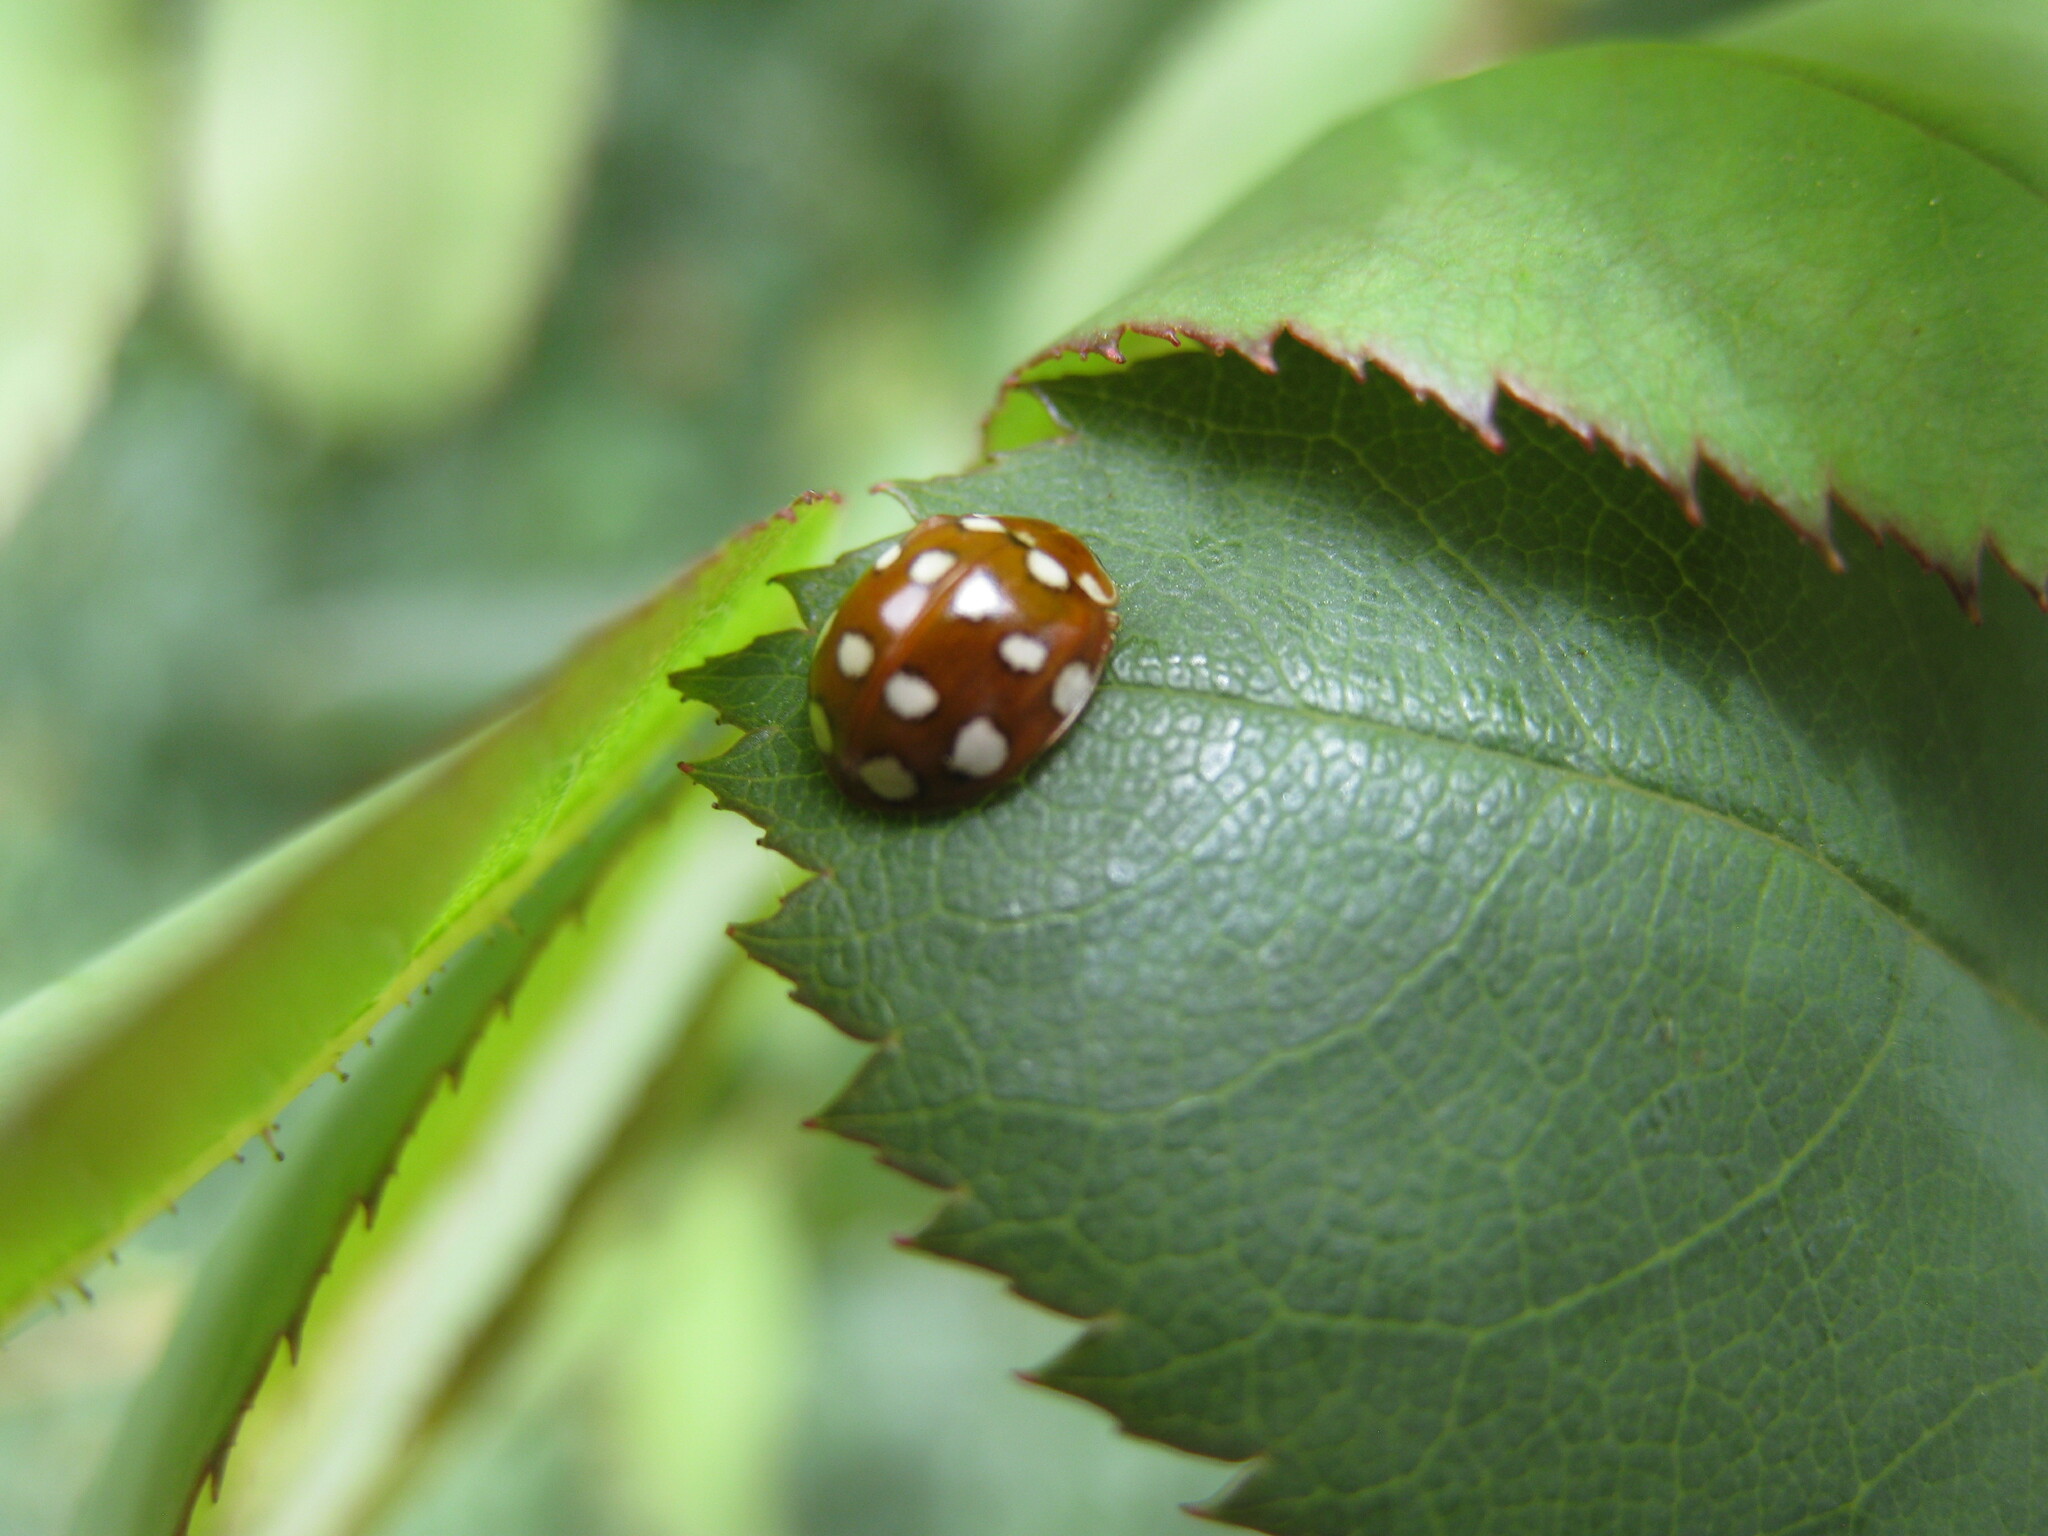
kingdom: Animalia
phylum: Arthropoda
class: Insecta
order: Coleoptera
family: Coccinellidae
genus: Calvia
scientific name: Calvia quatuordecimguttata
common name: Cream-spot ladybird
